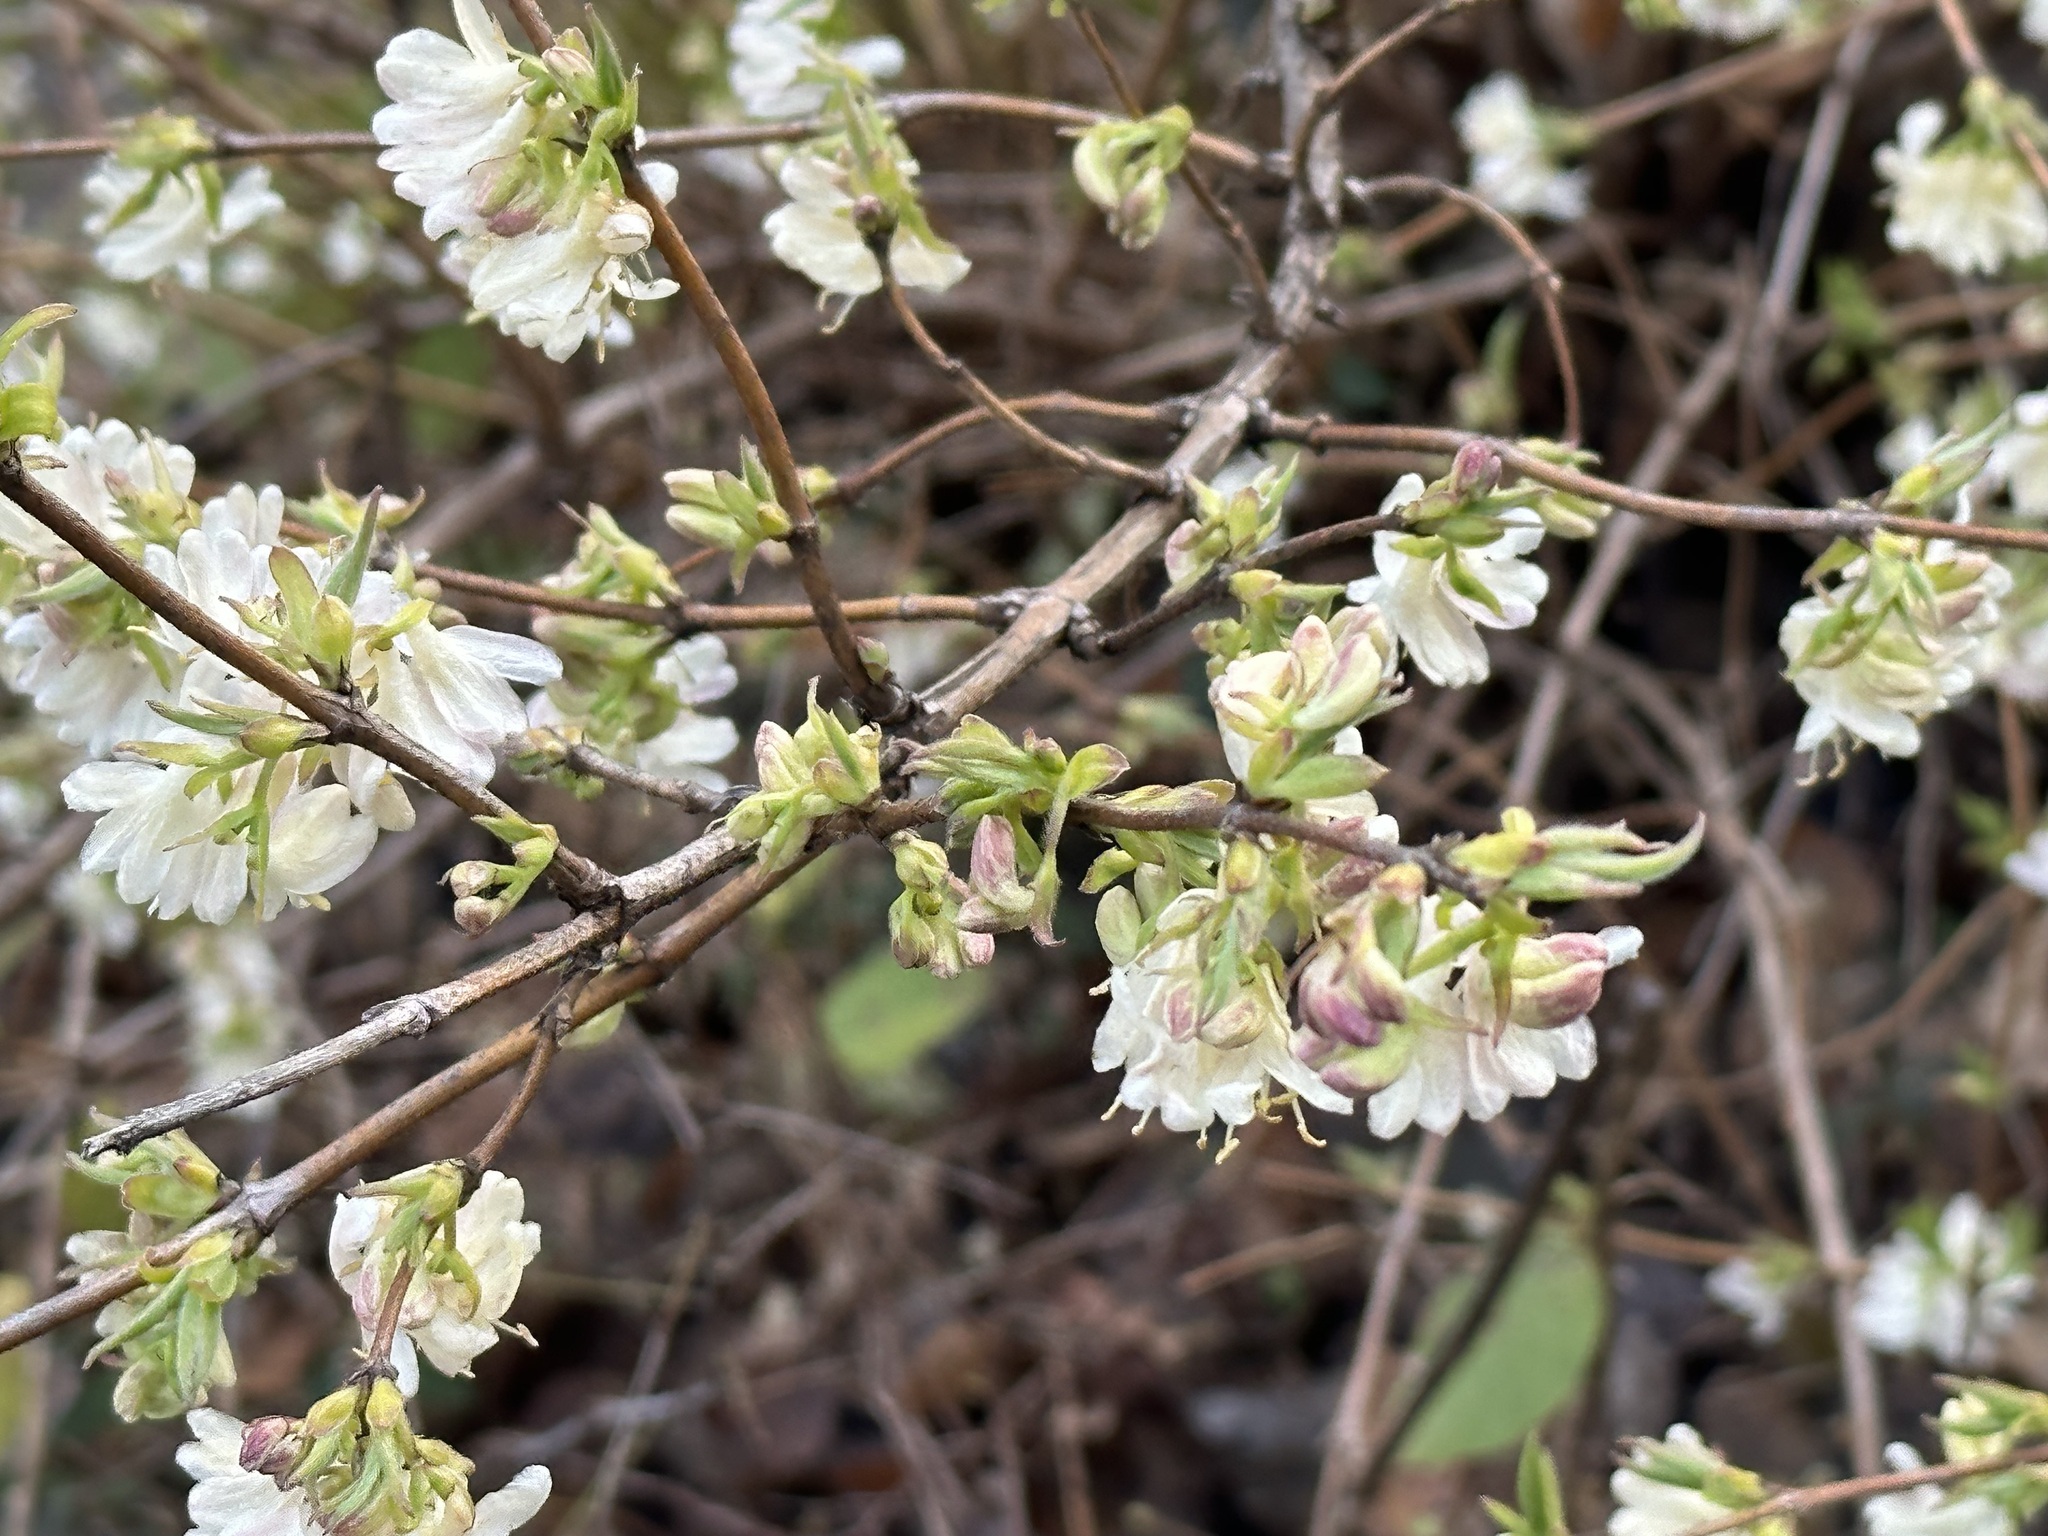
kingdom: Plantae
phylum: Tracheophyta
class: Magnoliopsida
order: Dipsacales
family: Caprifoliaceae
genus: Lonicera
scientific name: Lonicera fragrantissima
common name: Fragrant honeysuckle
